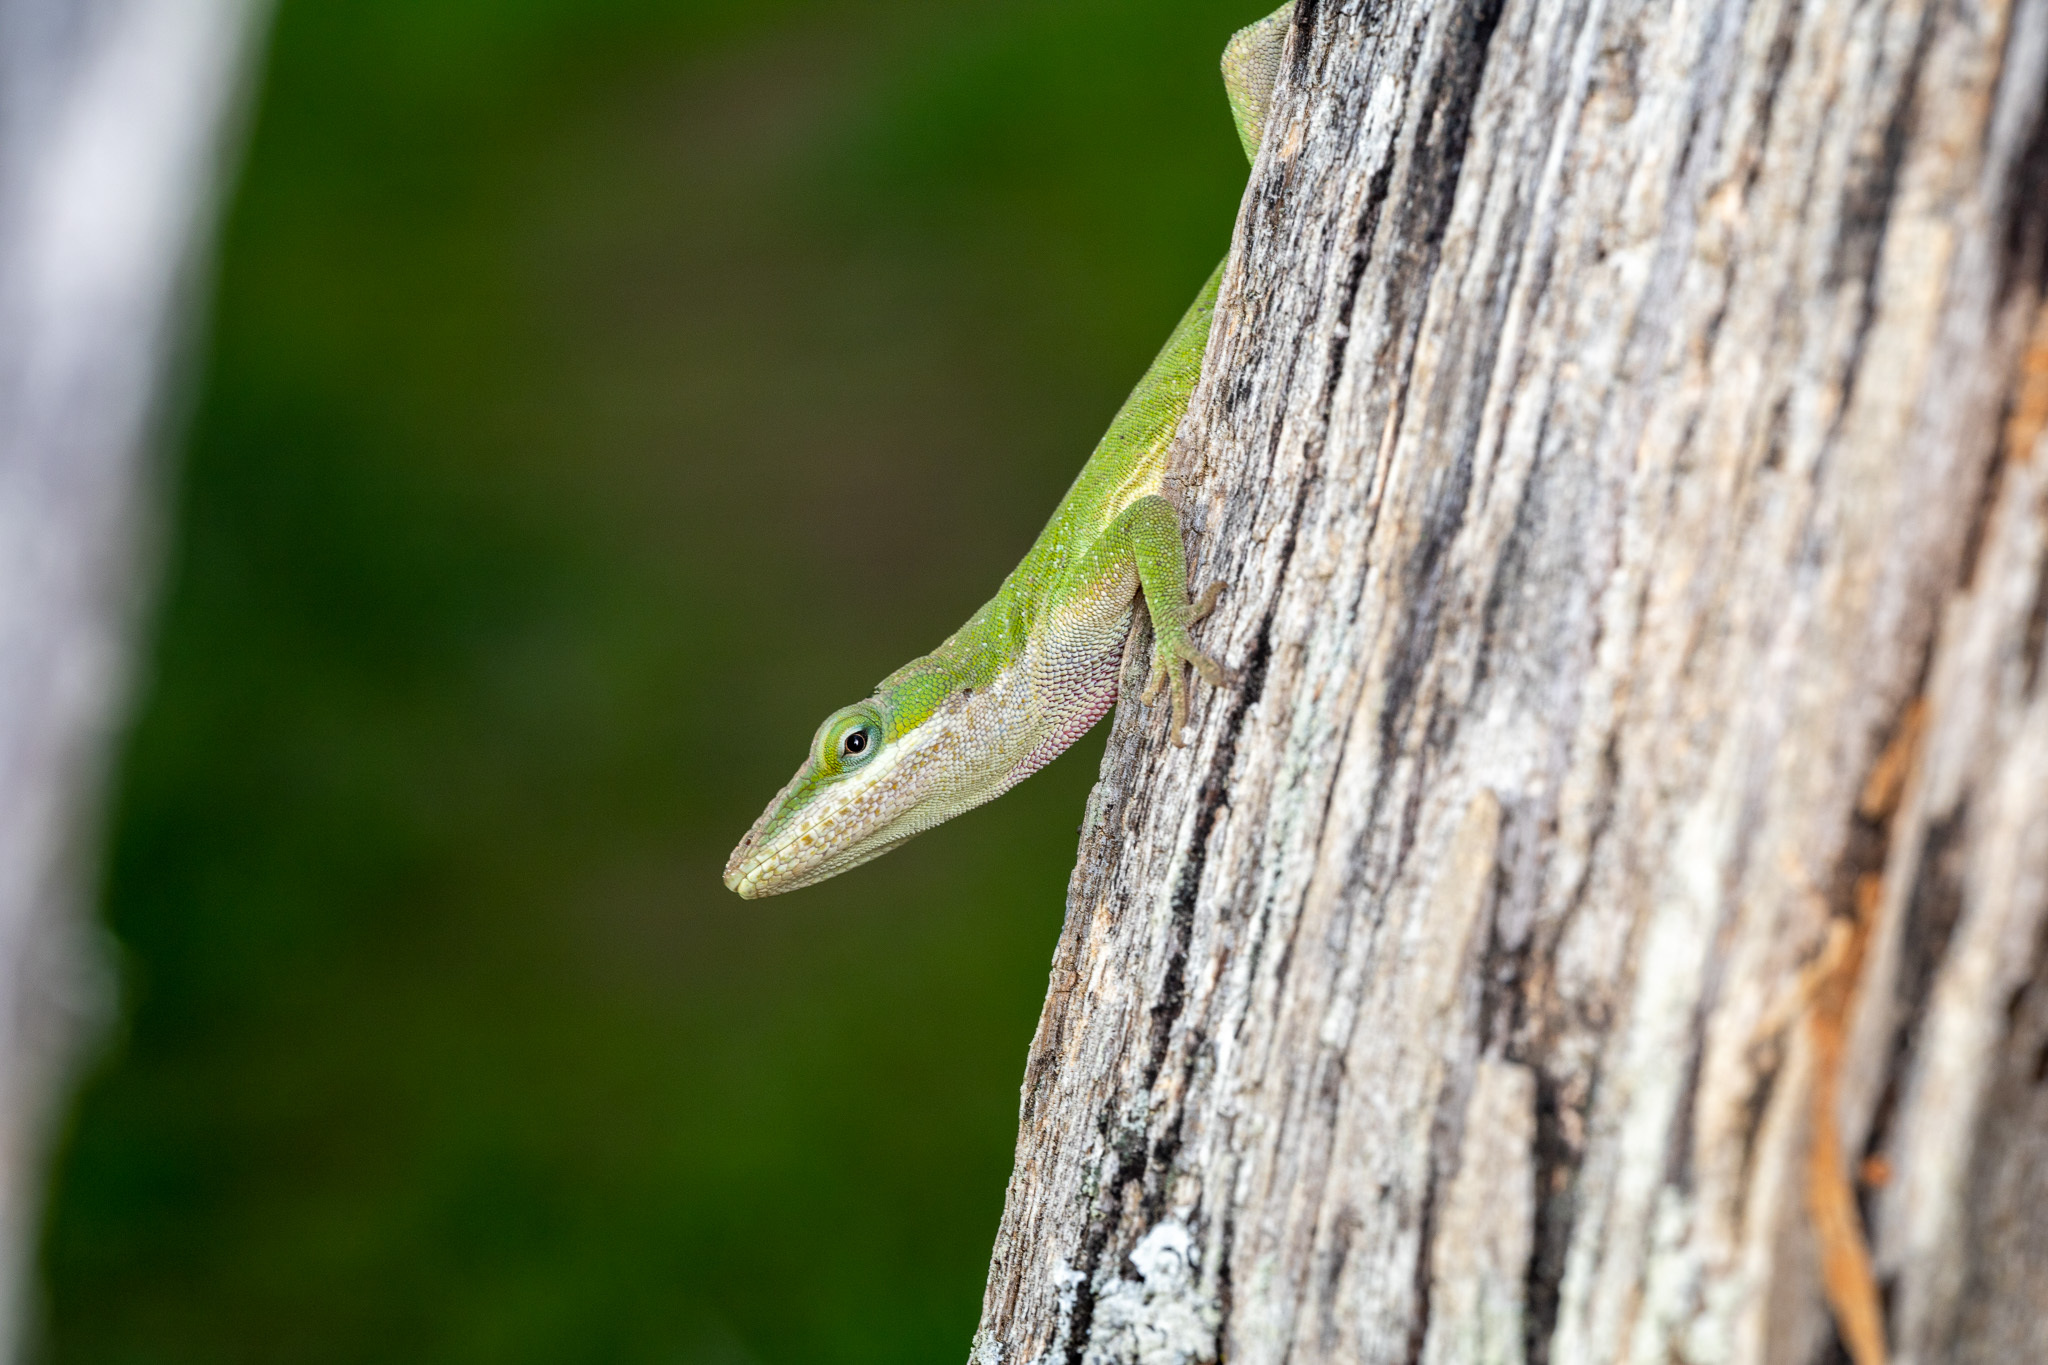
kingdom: Animalia
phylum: Chordata
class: Squamata
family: Dactyloidae
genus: Anolis
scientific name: Anolis carolinensis
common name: Green anole
